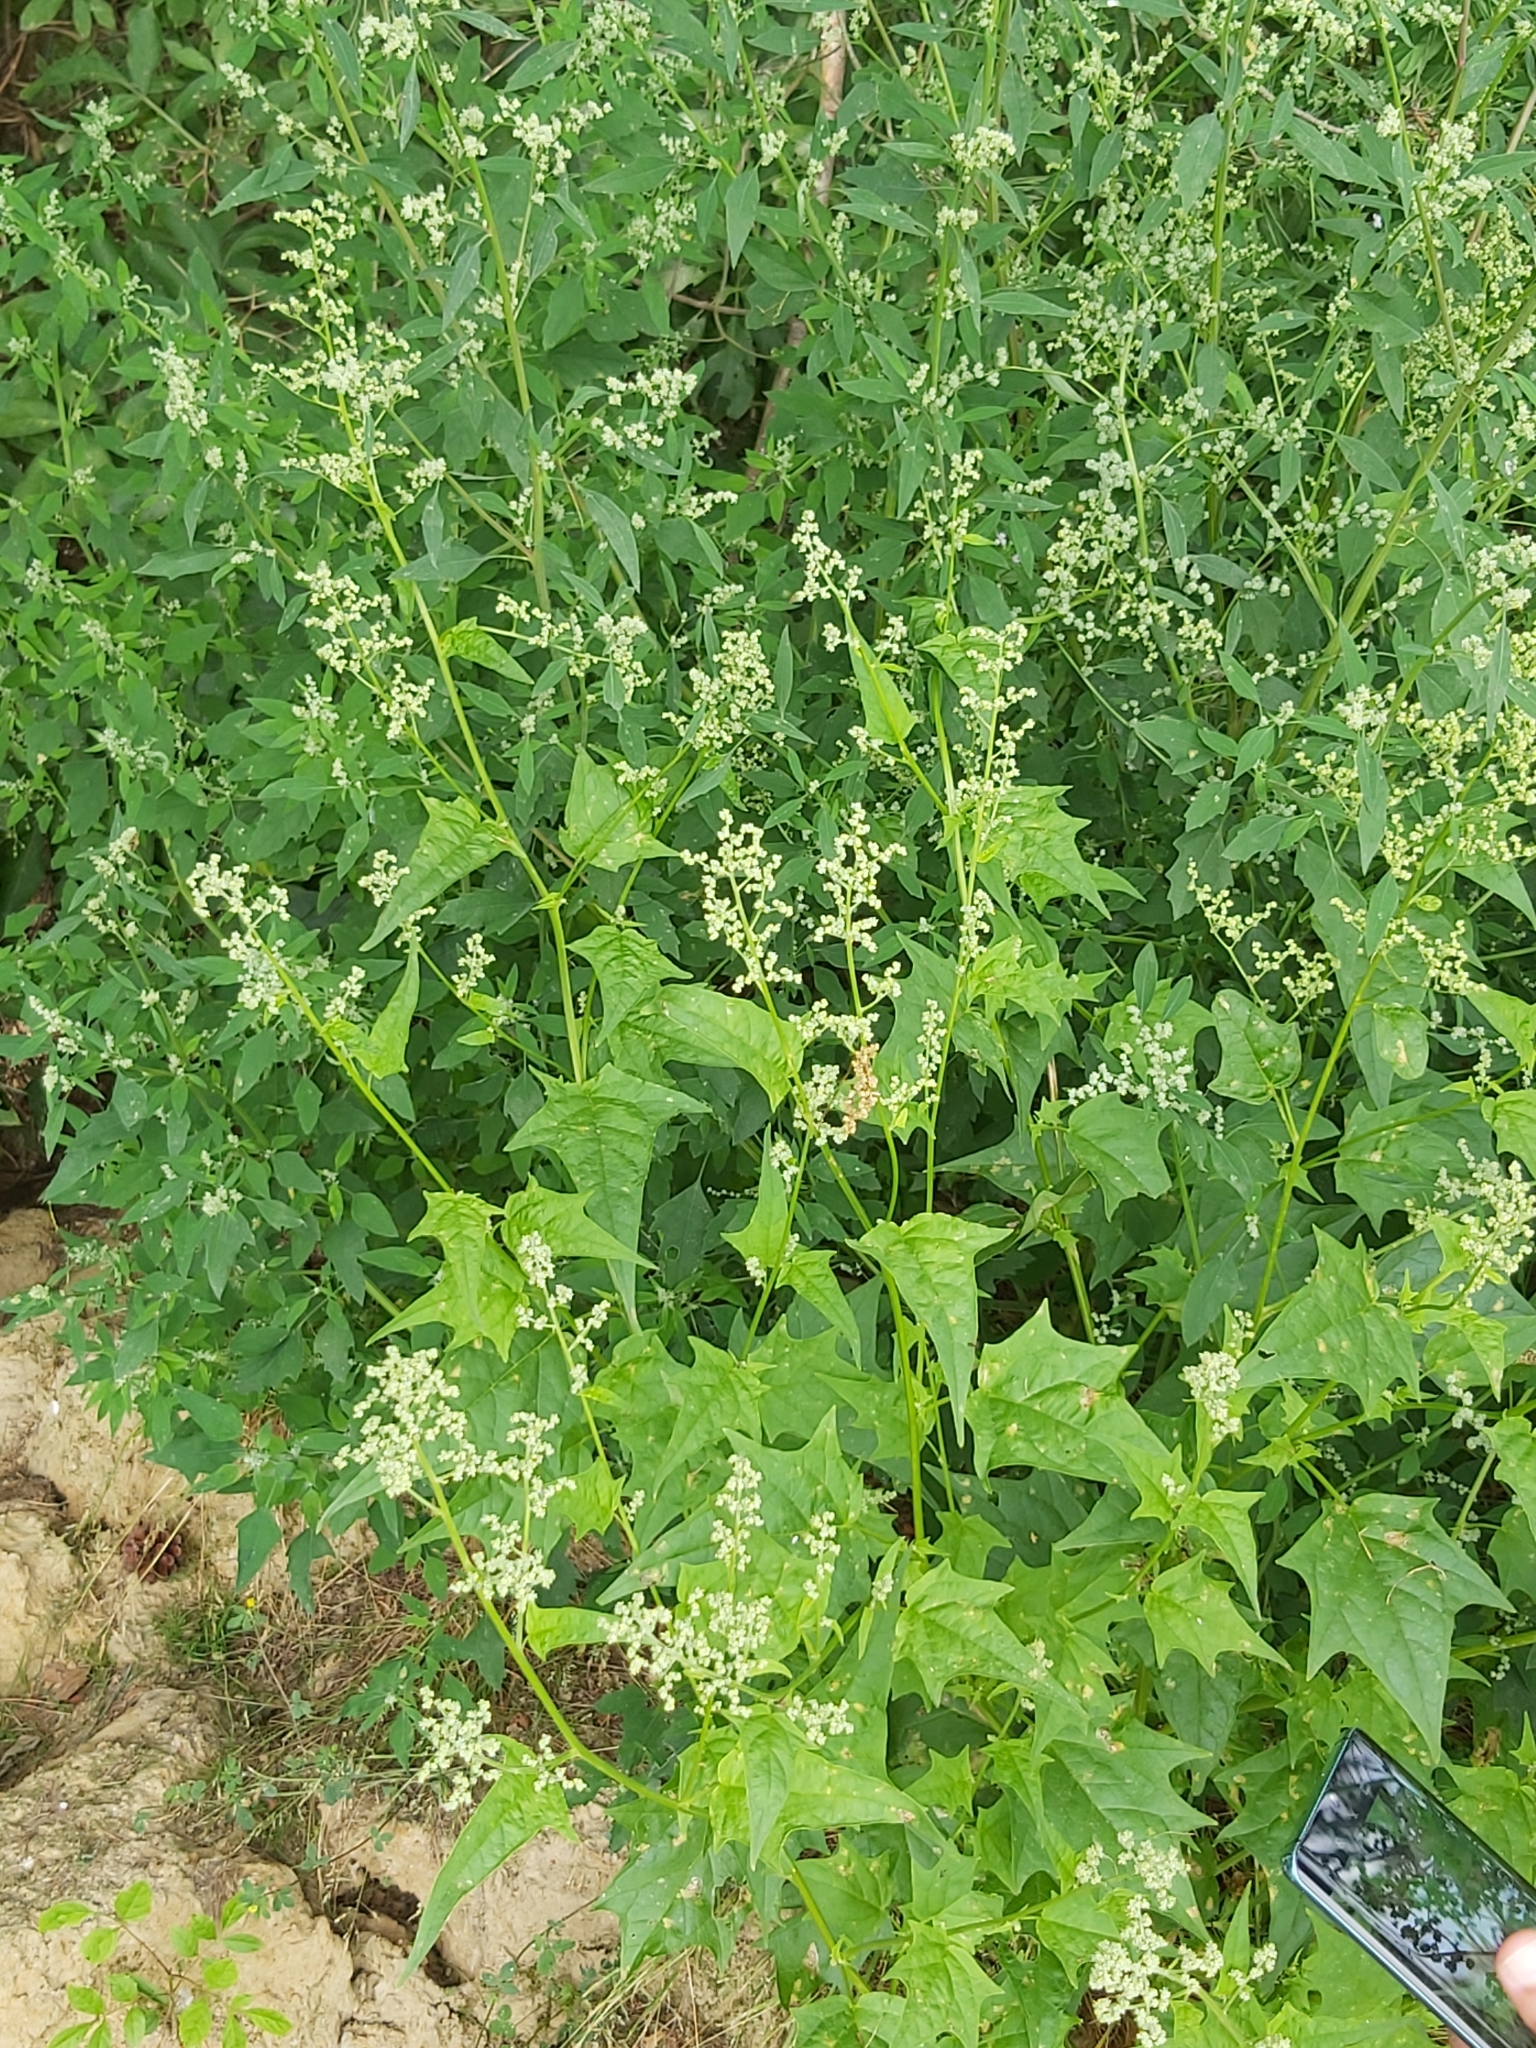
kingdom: Plantae
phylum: Tracheophyta
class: Magnoliopsida
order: Caryophyllales
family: Amaranthaceae
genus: Chenopodiastrum
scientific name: Chenopodiastrum hybridum
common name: Mapleleaf goosefoot
